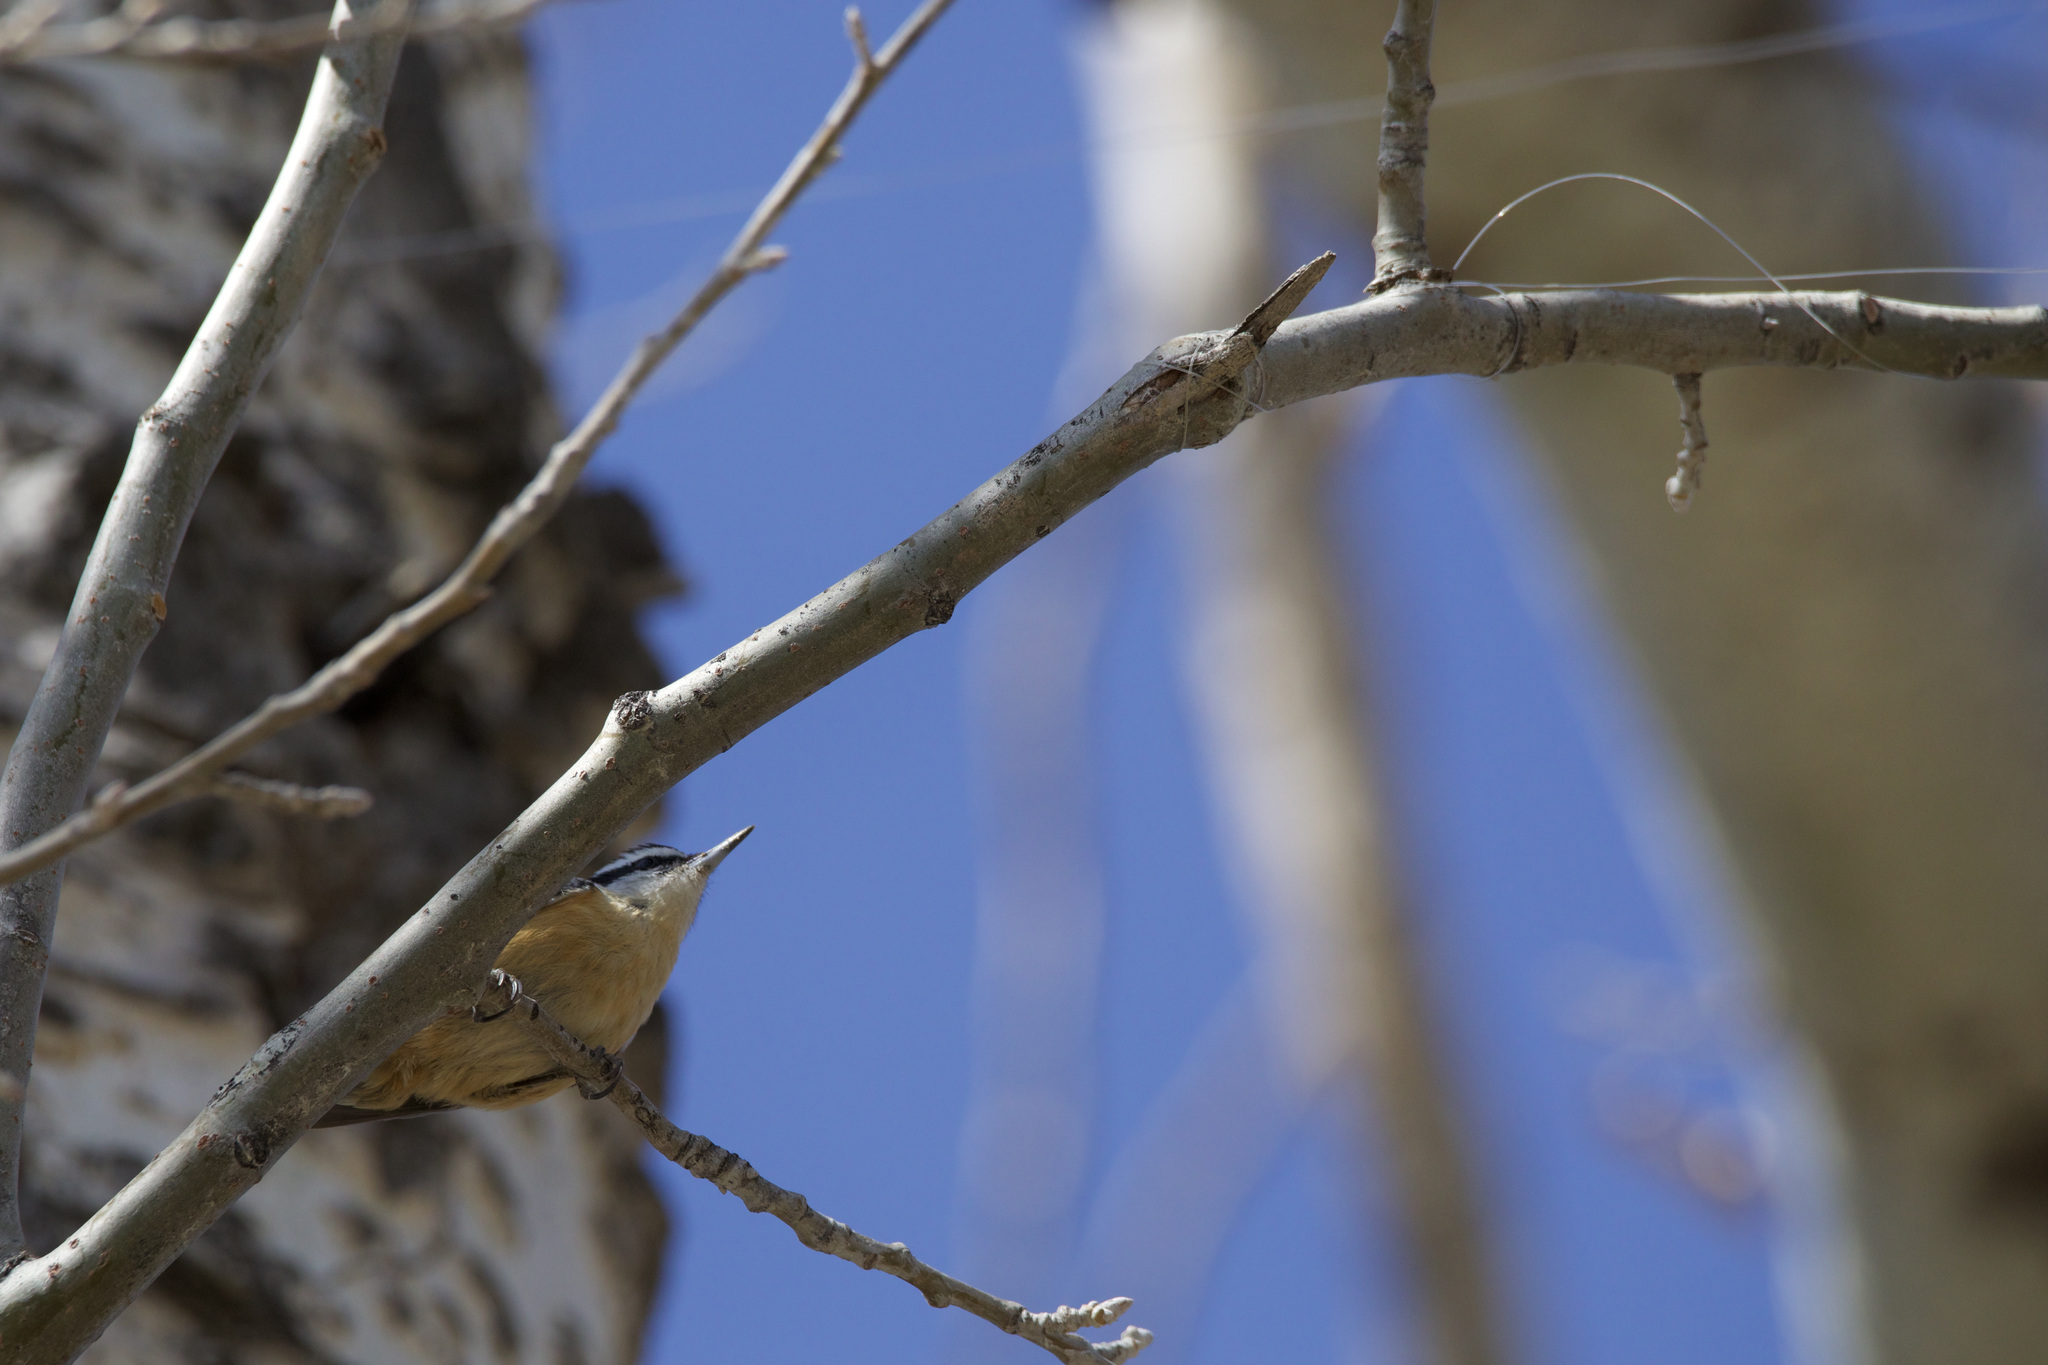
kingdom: Animalia
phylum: Chordata
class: Aves
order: Passeriformes
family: Sittidae
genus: Sitta
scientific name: Sitta canadensis
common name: Red-breasted nuthatch
